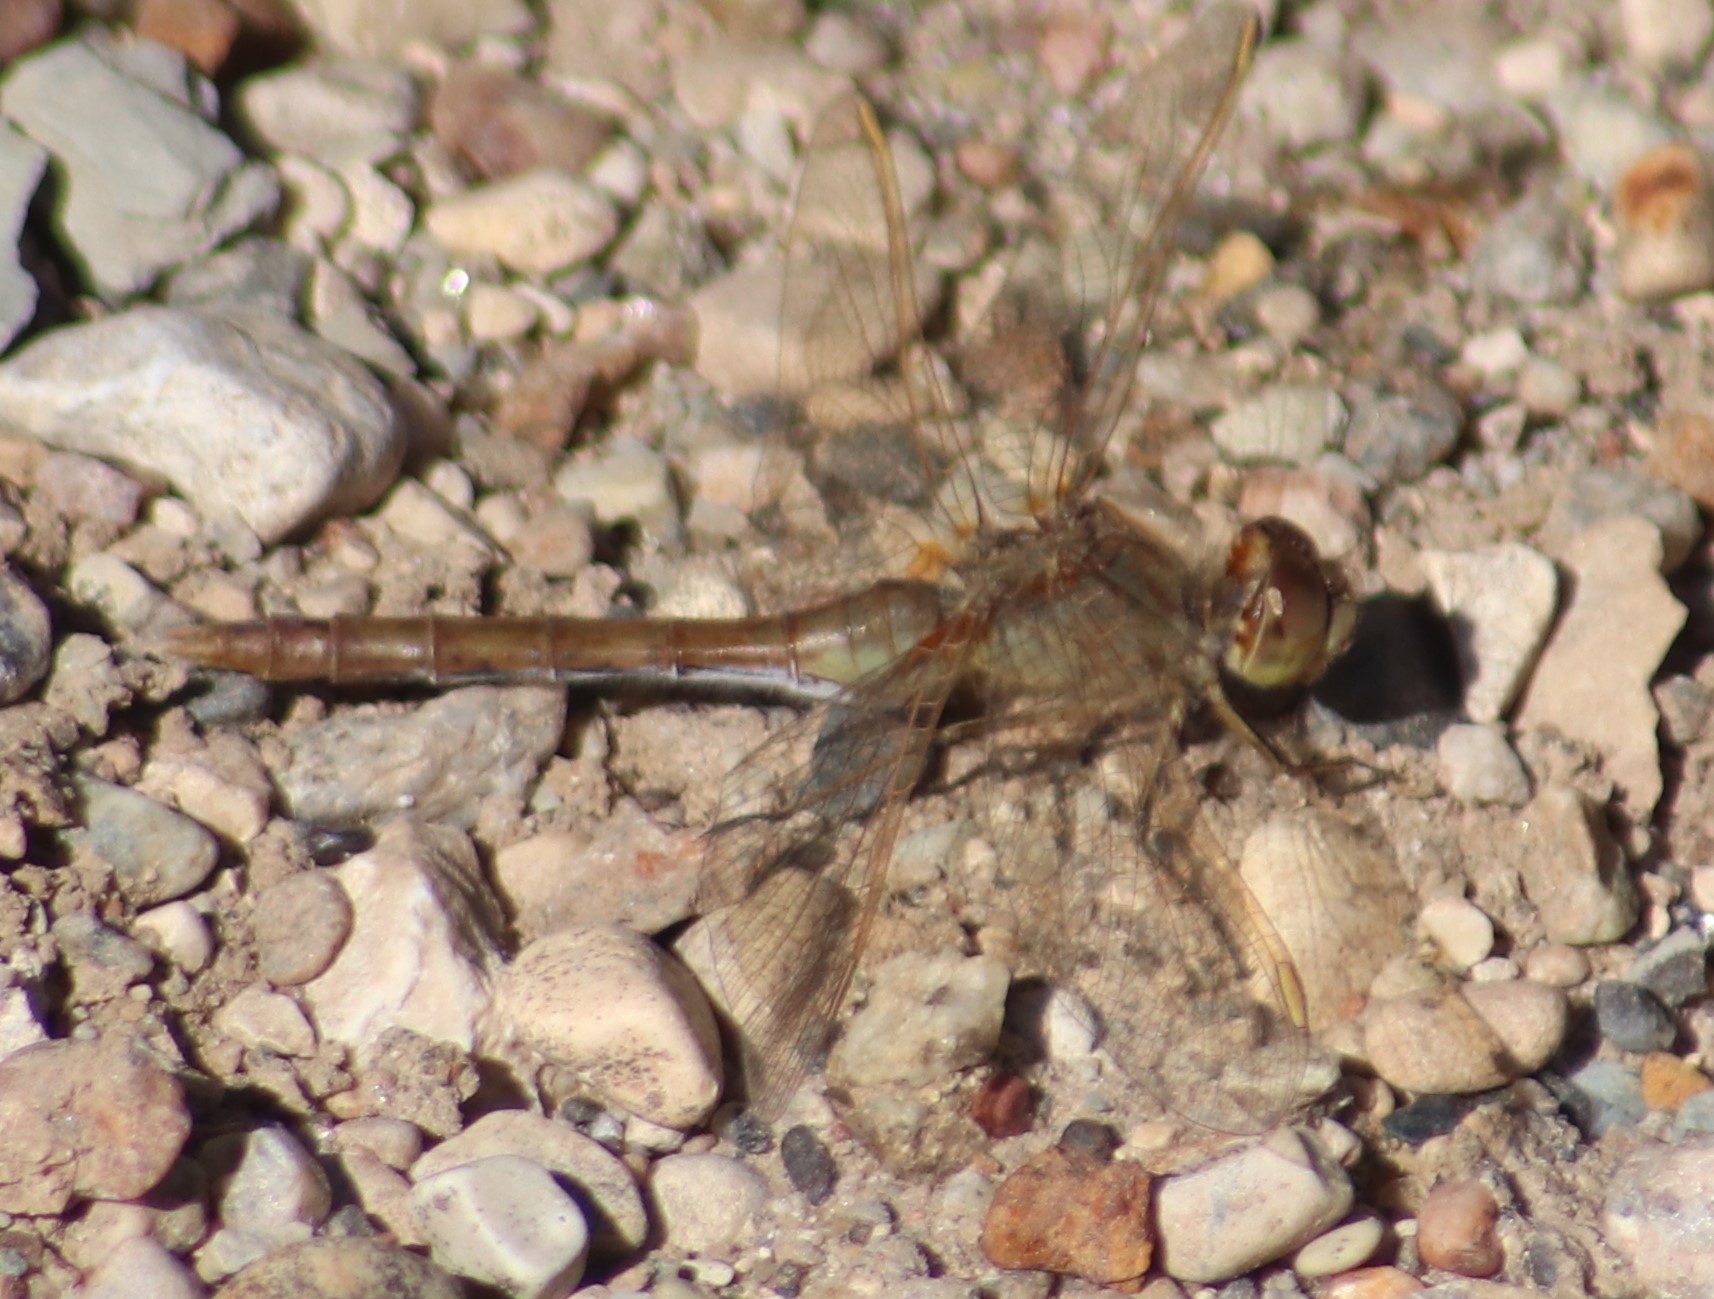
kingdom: Animalia
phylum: Arthropoda
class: Insecta
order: Odonata
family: Libellulidae
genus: Sympetrum
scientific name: Sympetrum costiferum
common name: Saffron-winged meadowhawk
